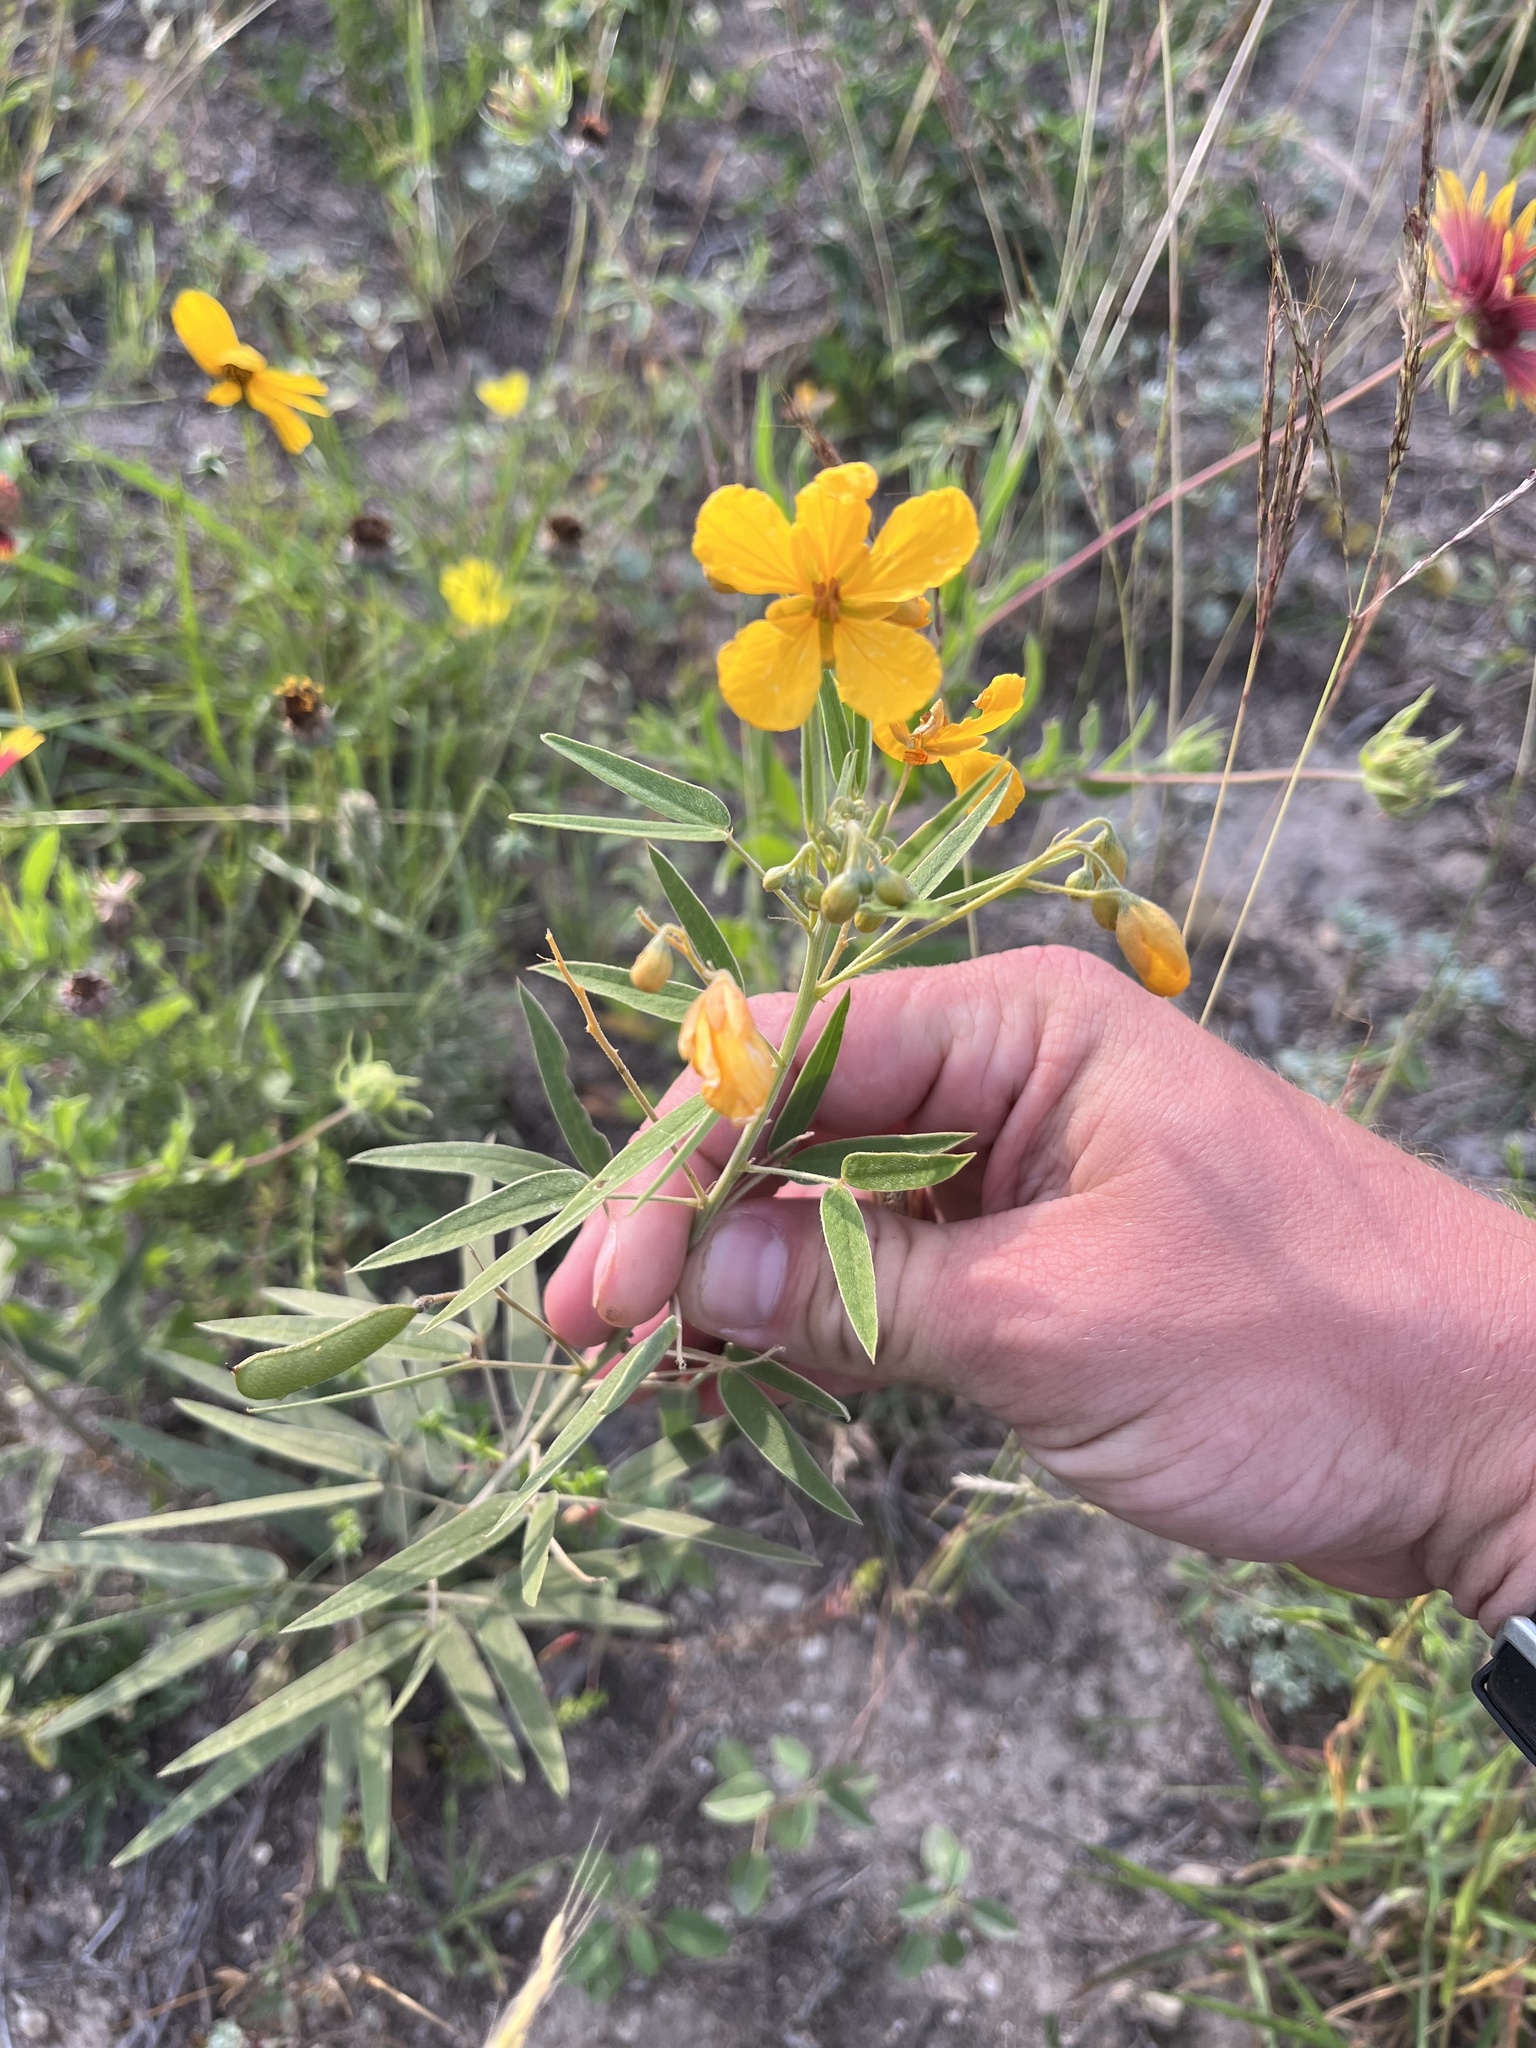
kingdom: Plantae
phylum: Tracheophyta
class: Magnoliopsida
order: Fabales
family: Fabaceae
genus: Senna
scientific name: Senna roemeriana
